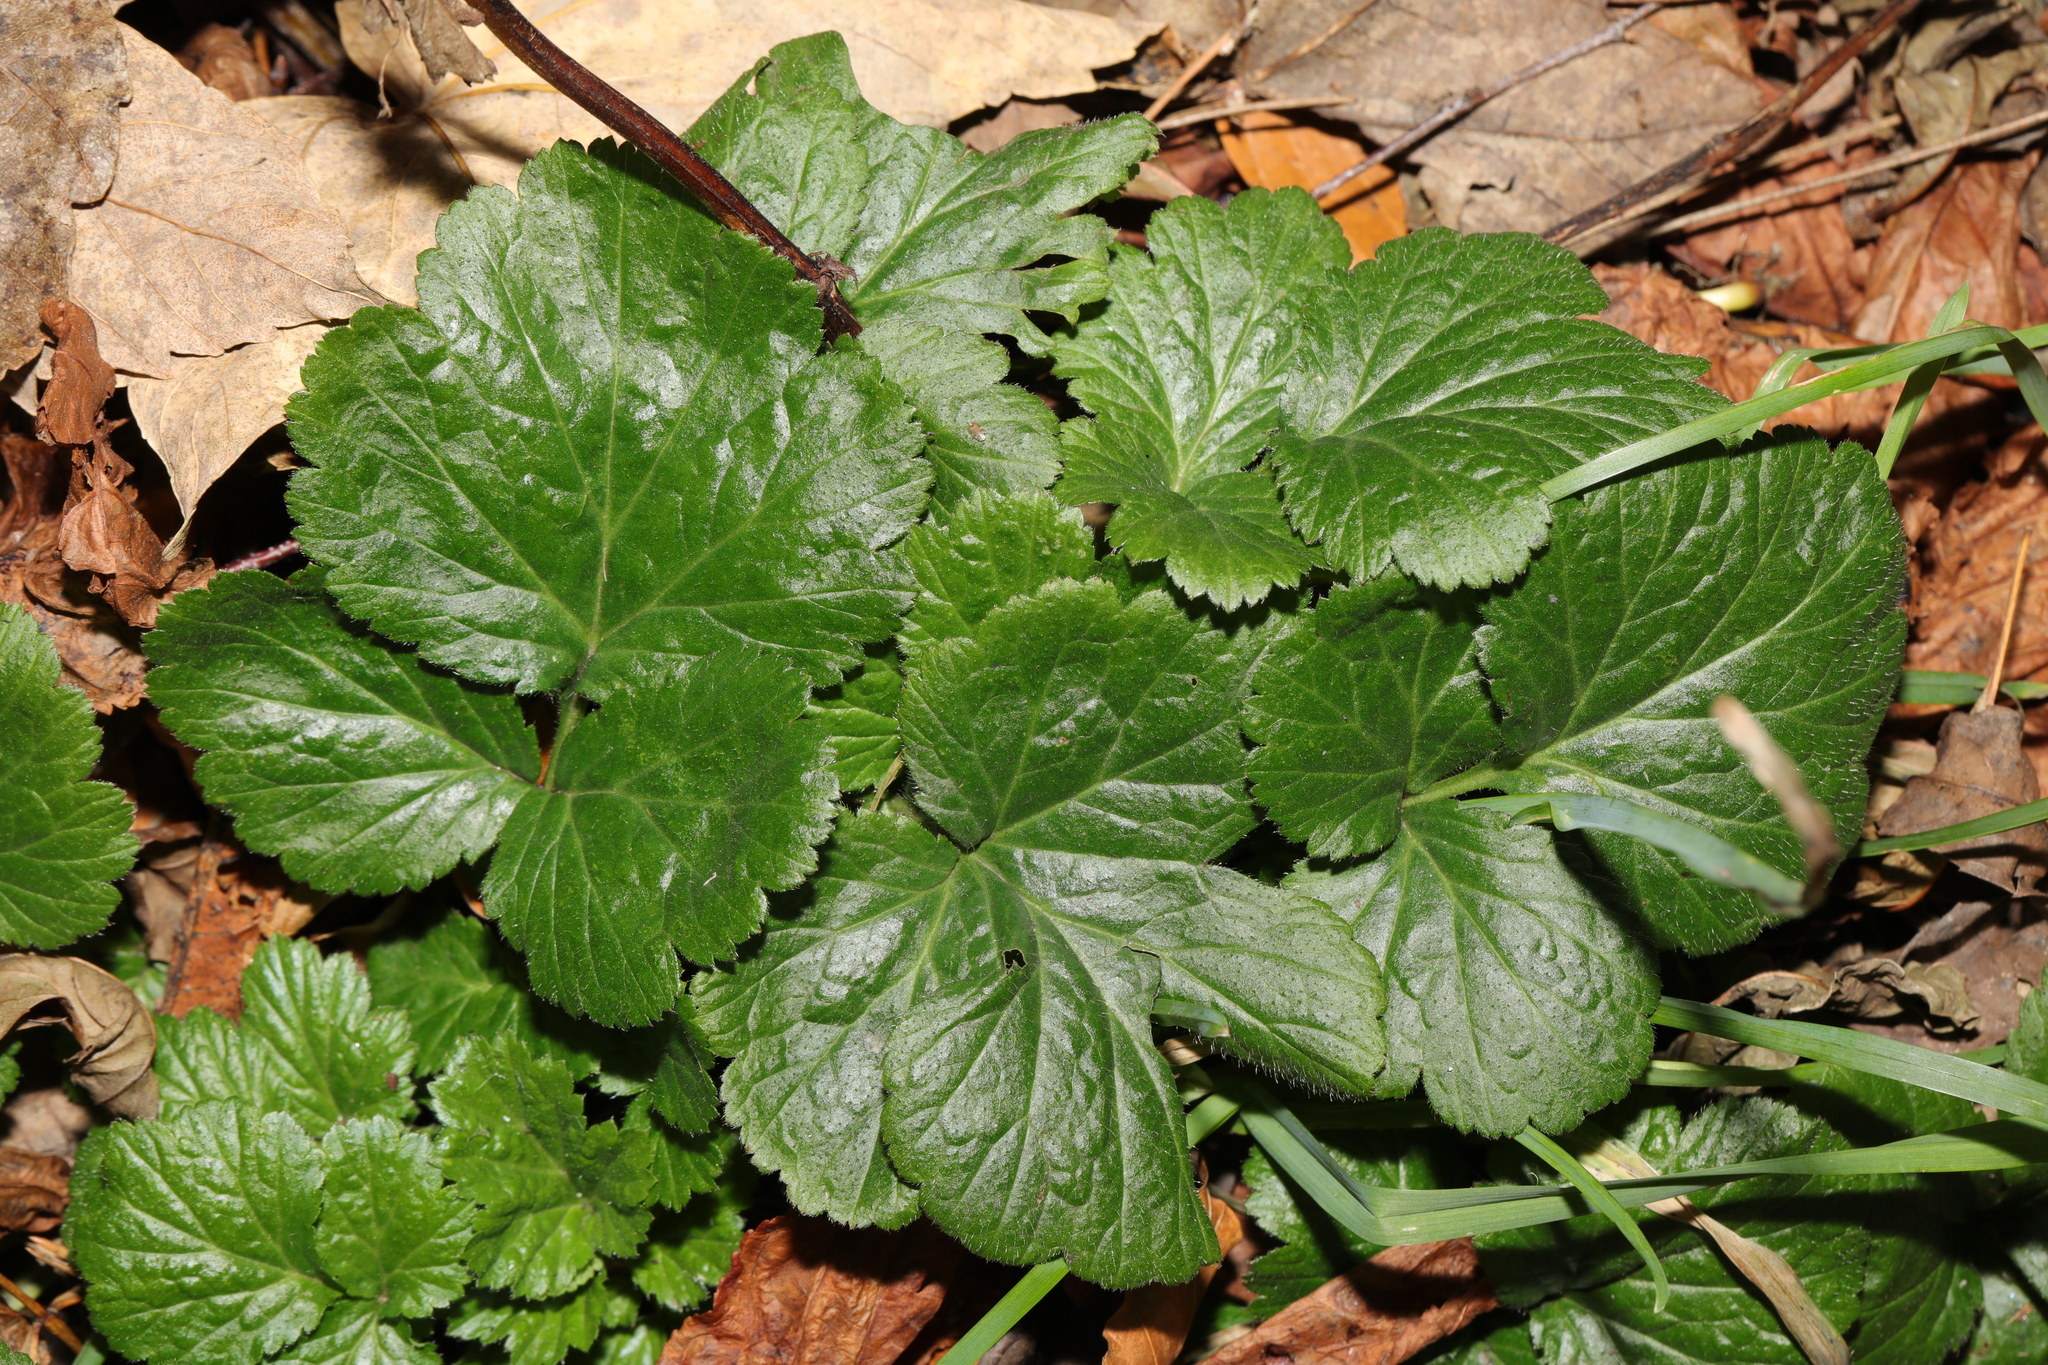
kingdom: Plantae
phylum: Tracheophyta
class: Magnoliopsida
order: Rosales
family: Rosaceae
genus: Geum
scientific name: Geum urbanum
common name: Wood avens
